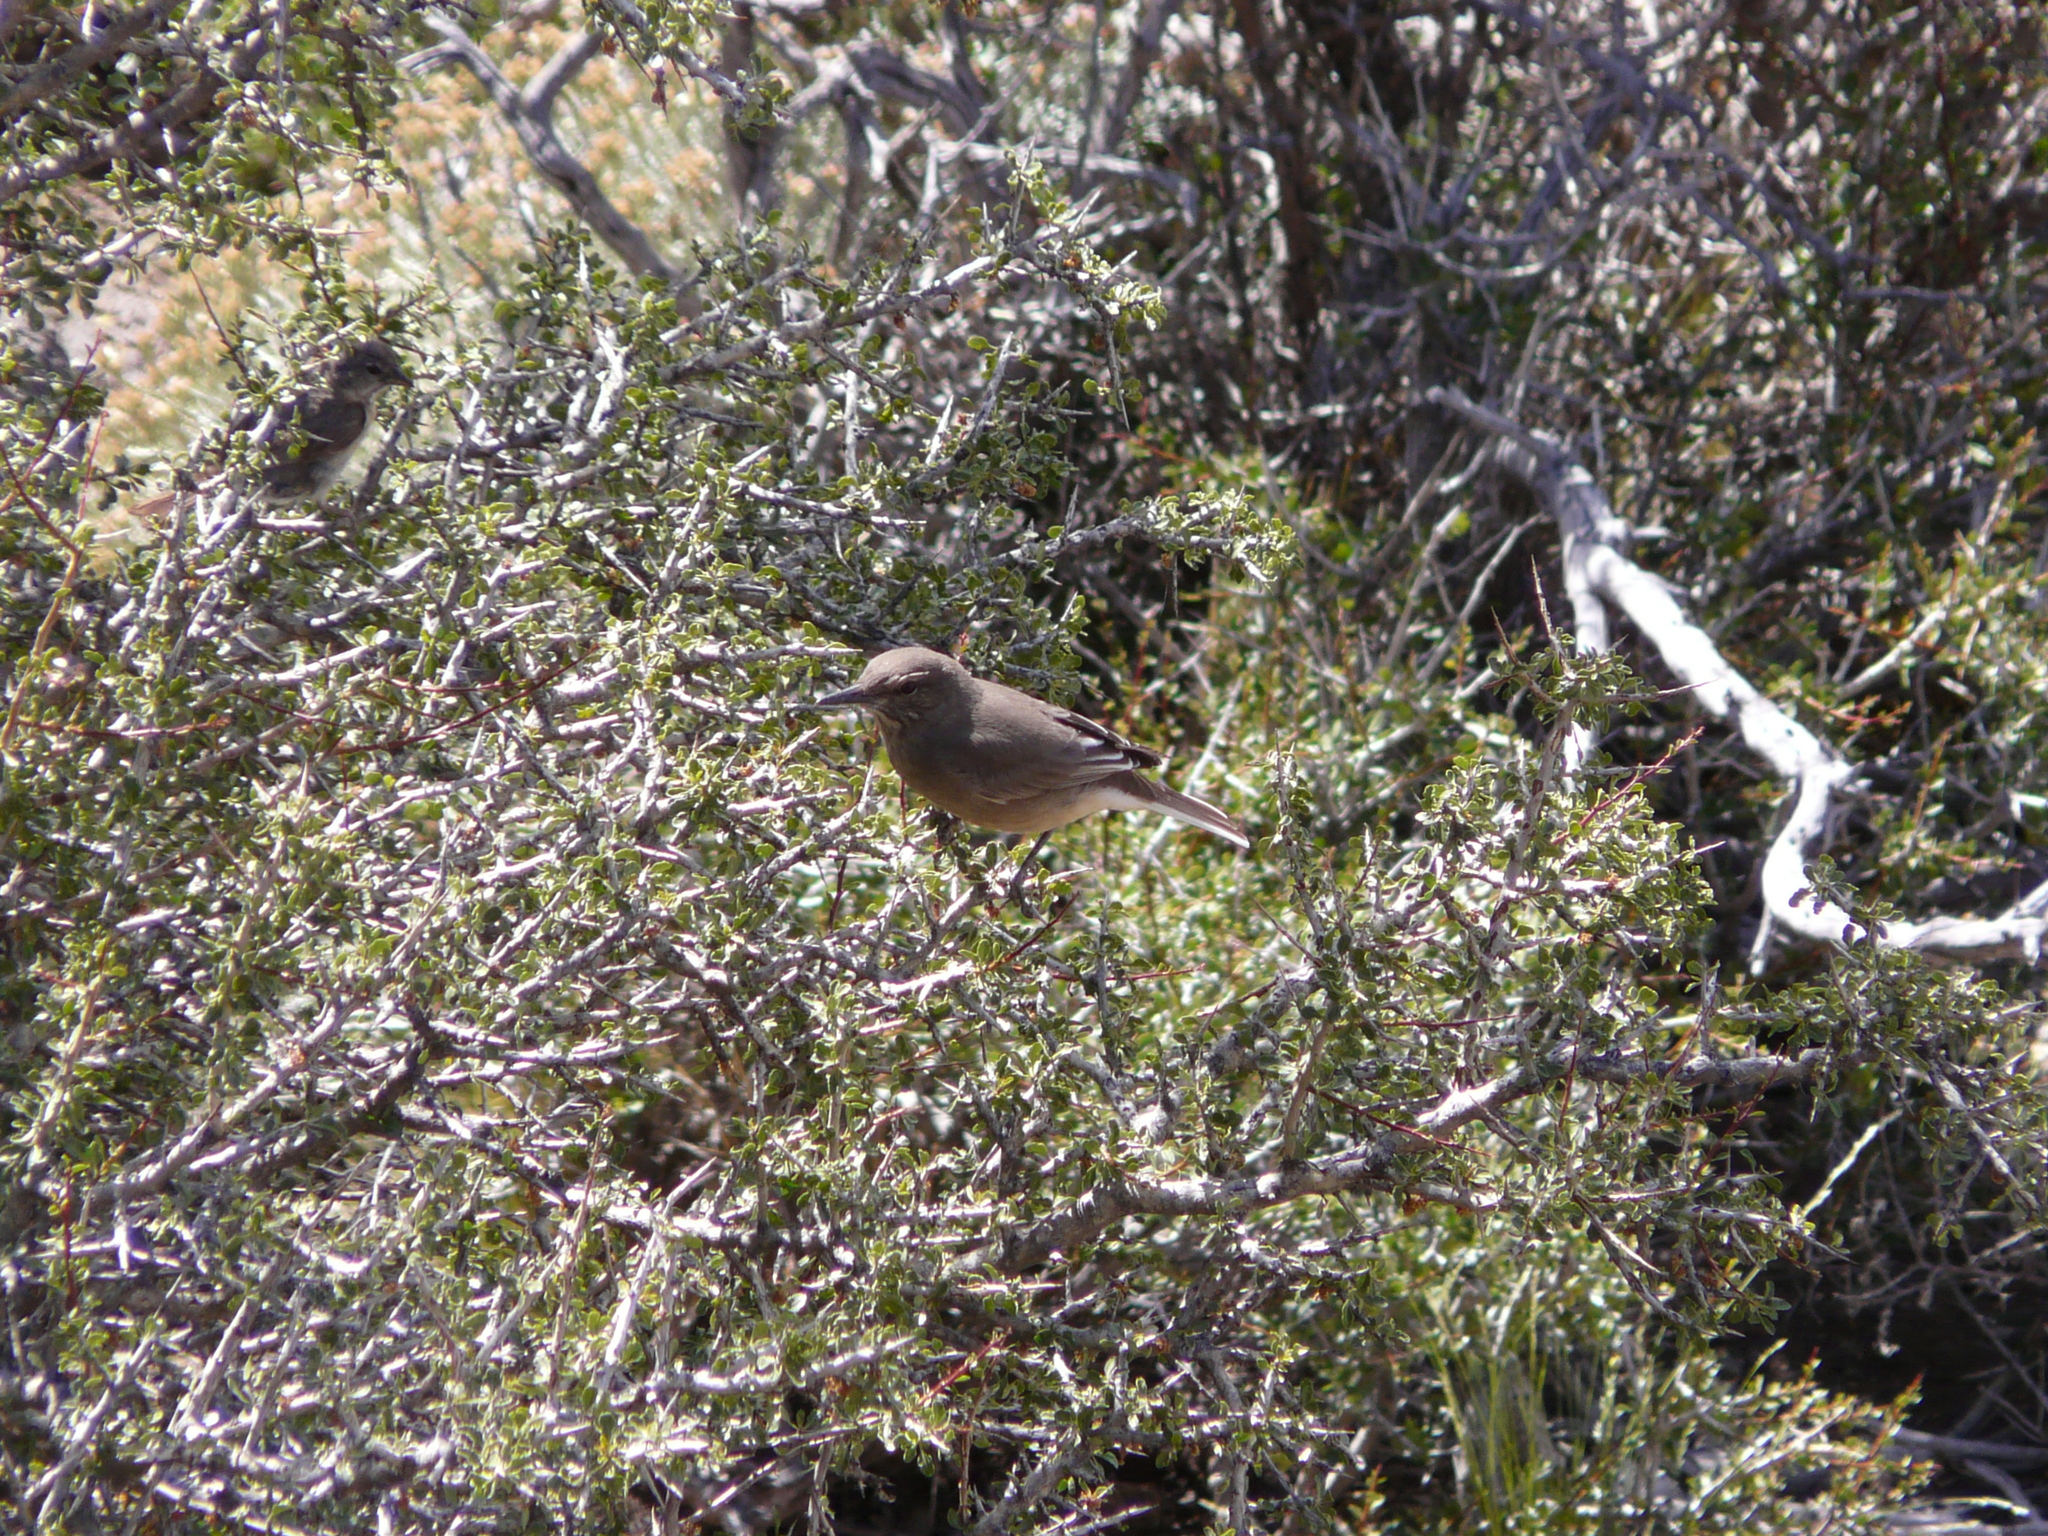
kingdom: Animalia
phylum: Chordata
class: Aves
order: Passeriformes
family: Tyrannidae
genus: Agriornis
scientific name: Agriornis montanus
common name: Black-billed shrike-tyrant
